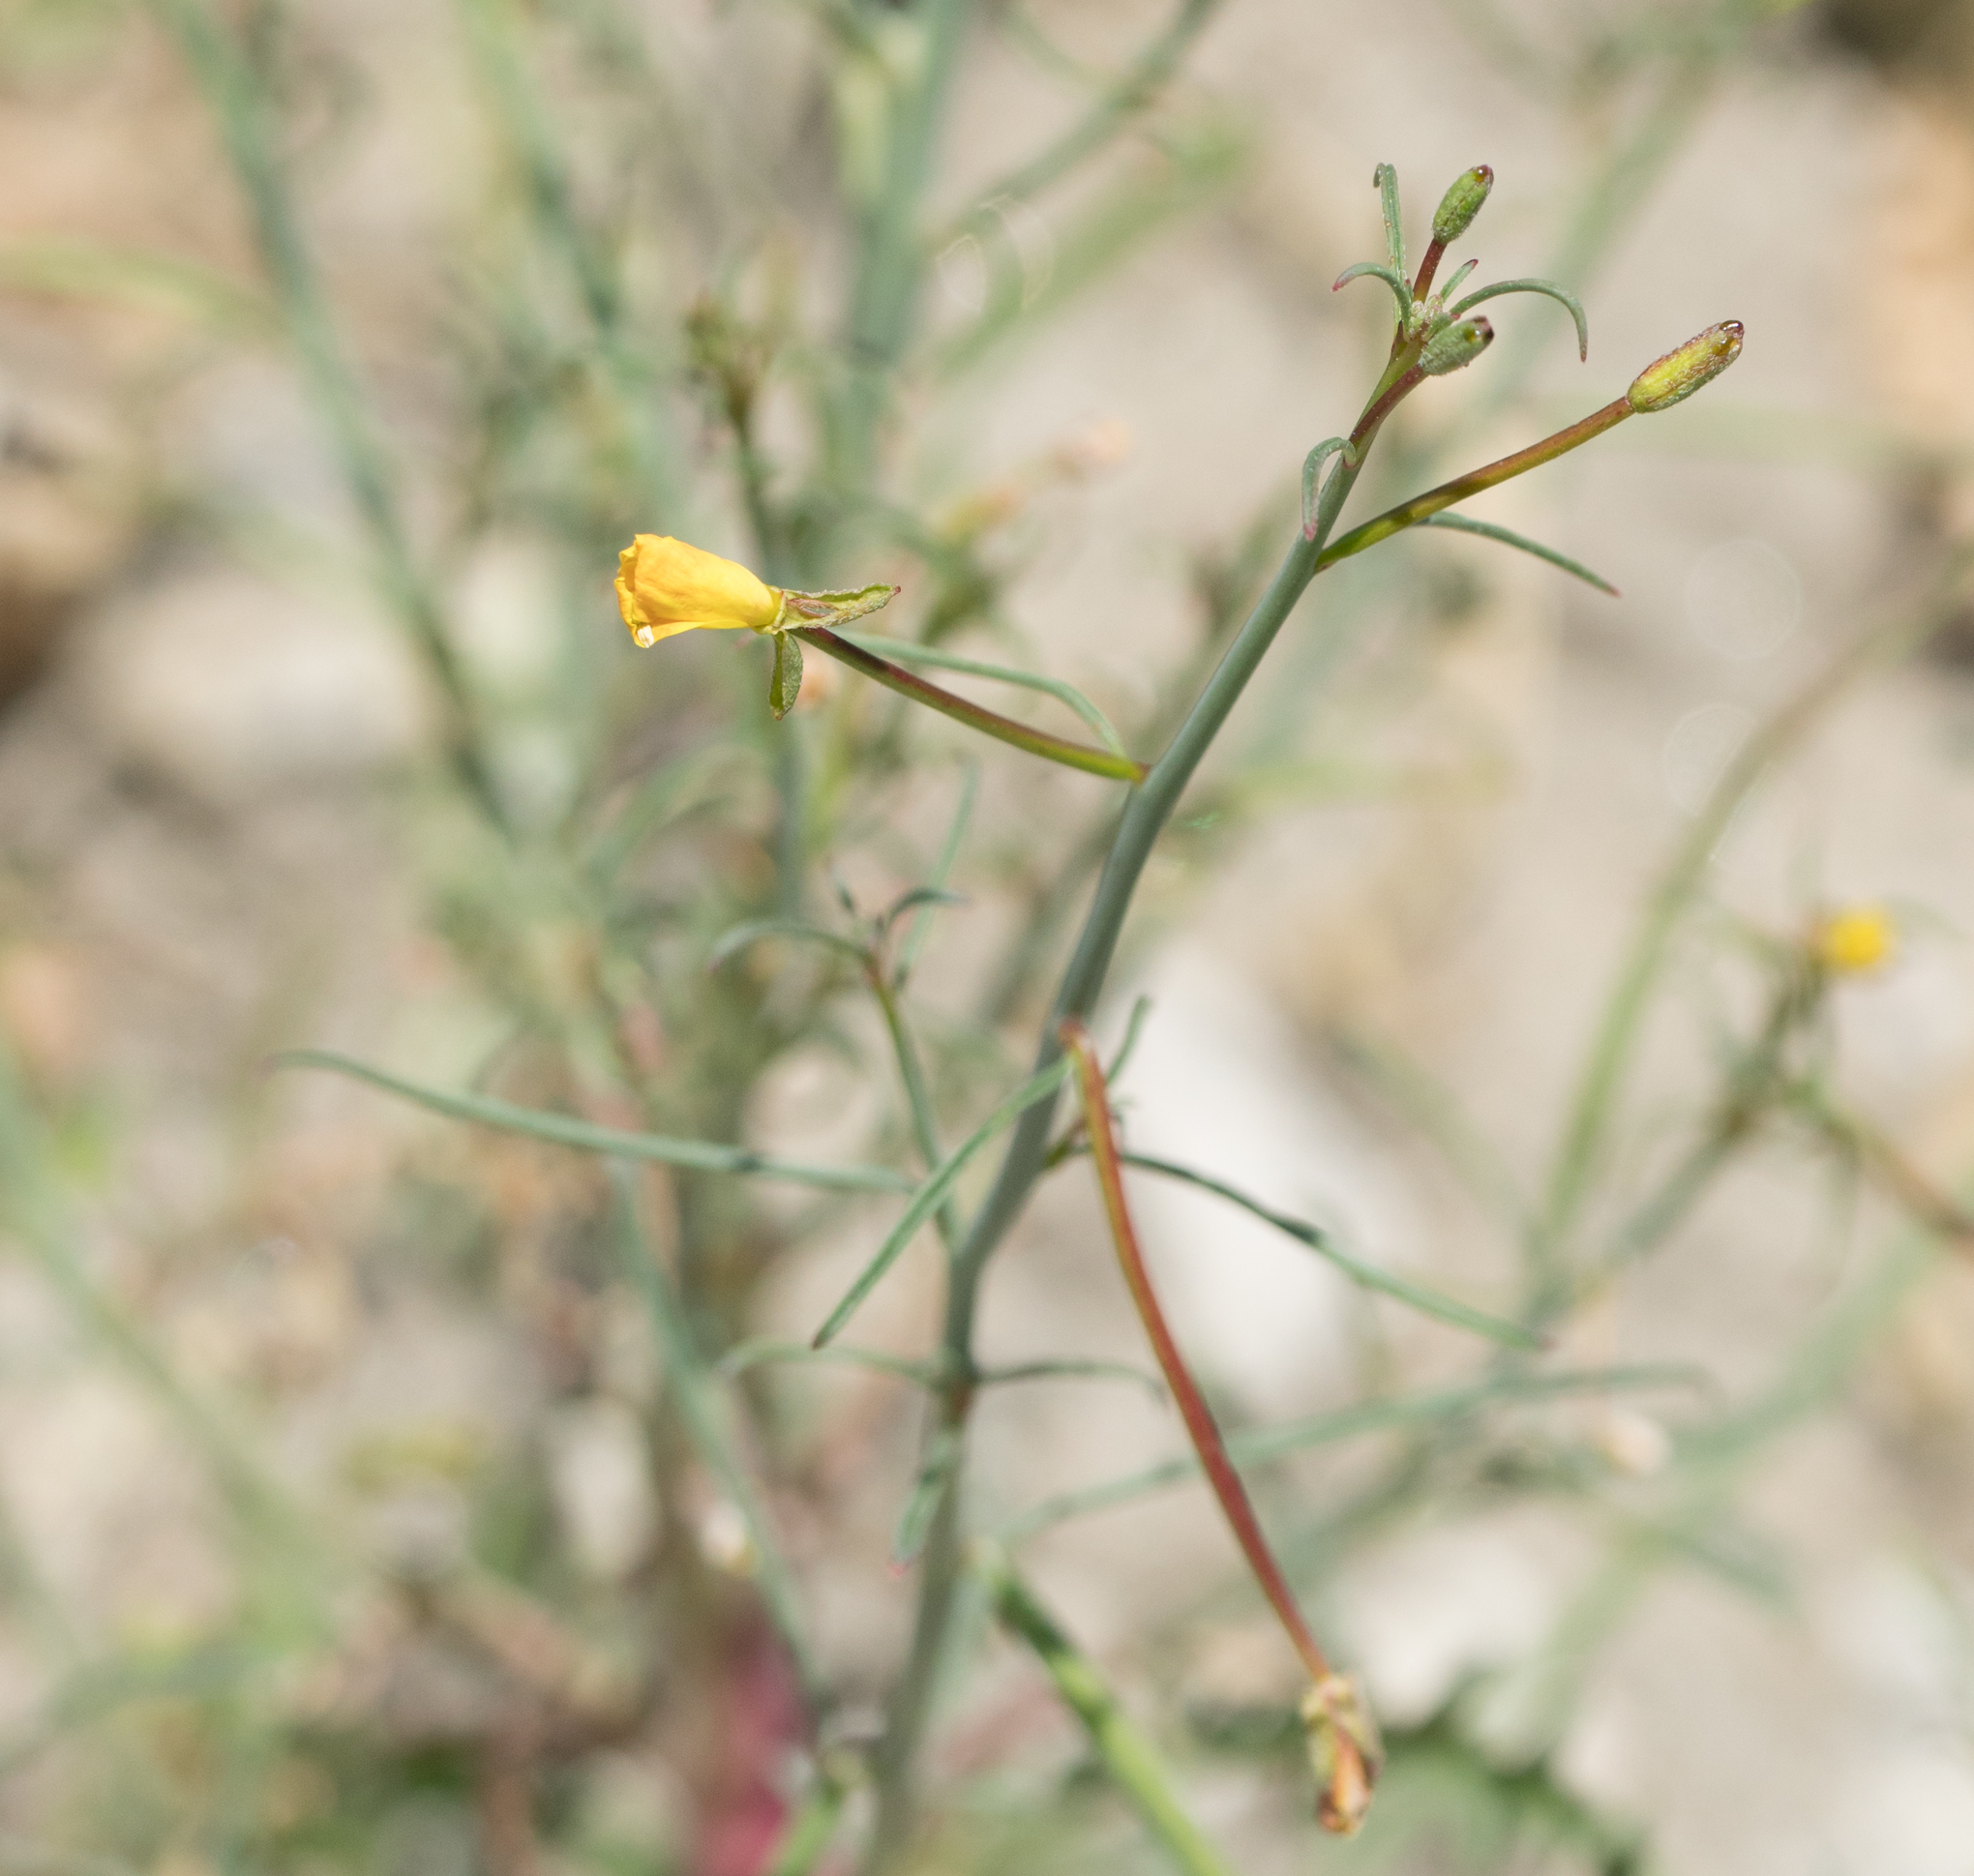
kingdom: Plantae
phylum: Tracheophyta
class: Magnoliopsida
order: Myrtales
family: Onagraceae
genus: Eulobus
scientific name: Eulobus californicus
